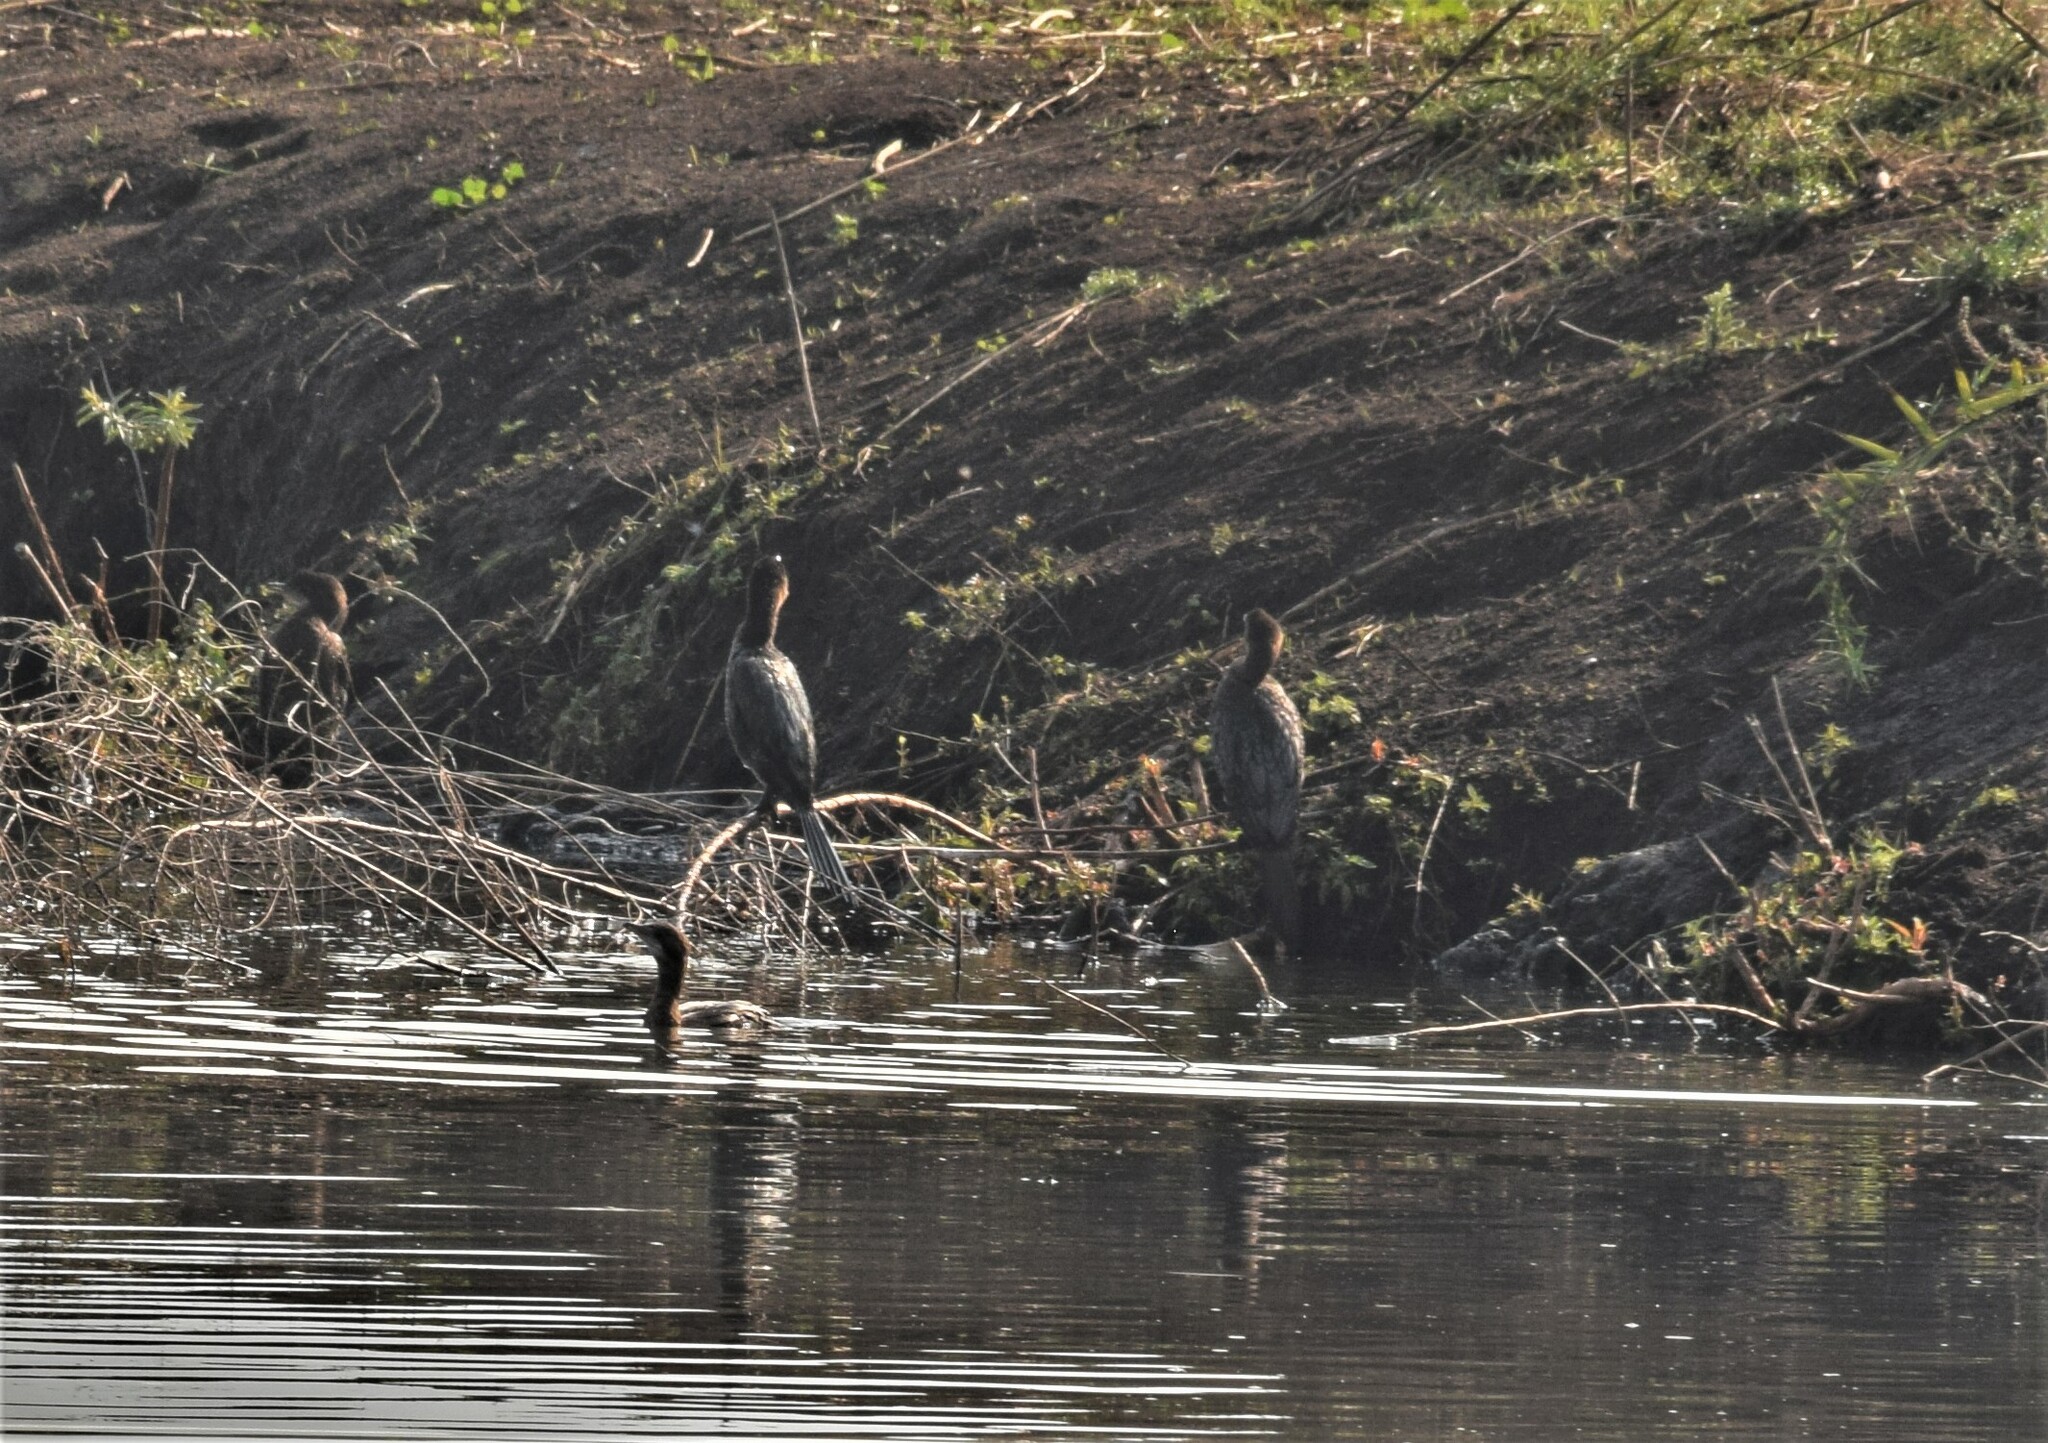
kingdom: Animalia
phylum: Chordata
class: Aves
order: Suliformes
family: Phalacrocoracidae
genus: Microcarbo
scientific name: Microcarbo pygmaeus
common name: Pygmy cormorant
